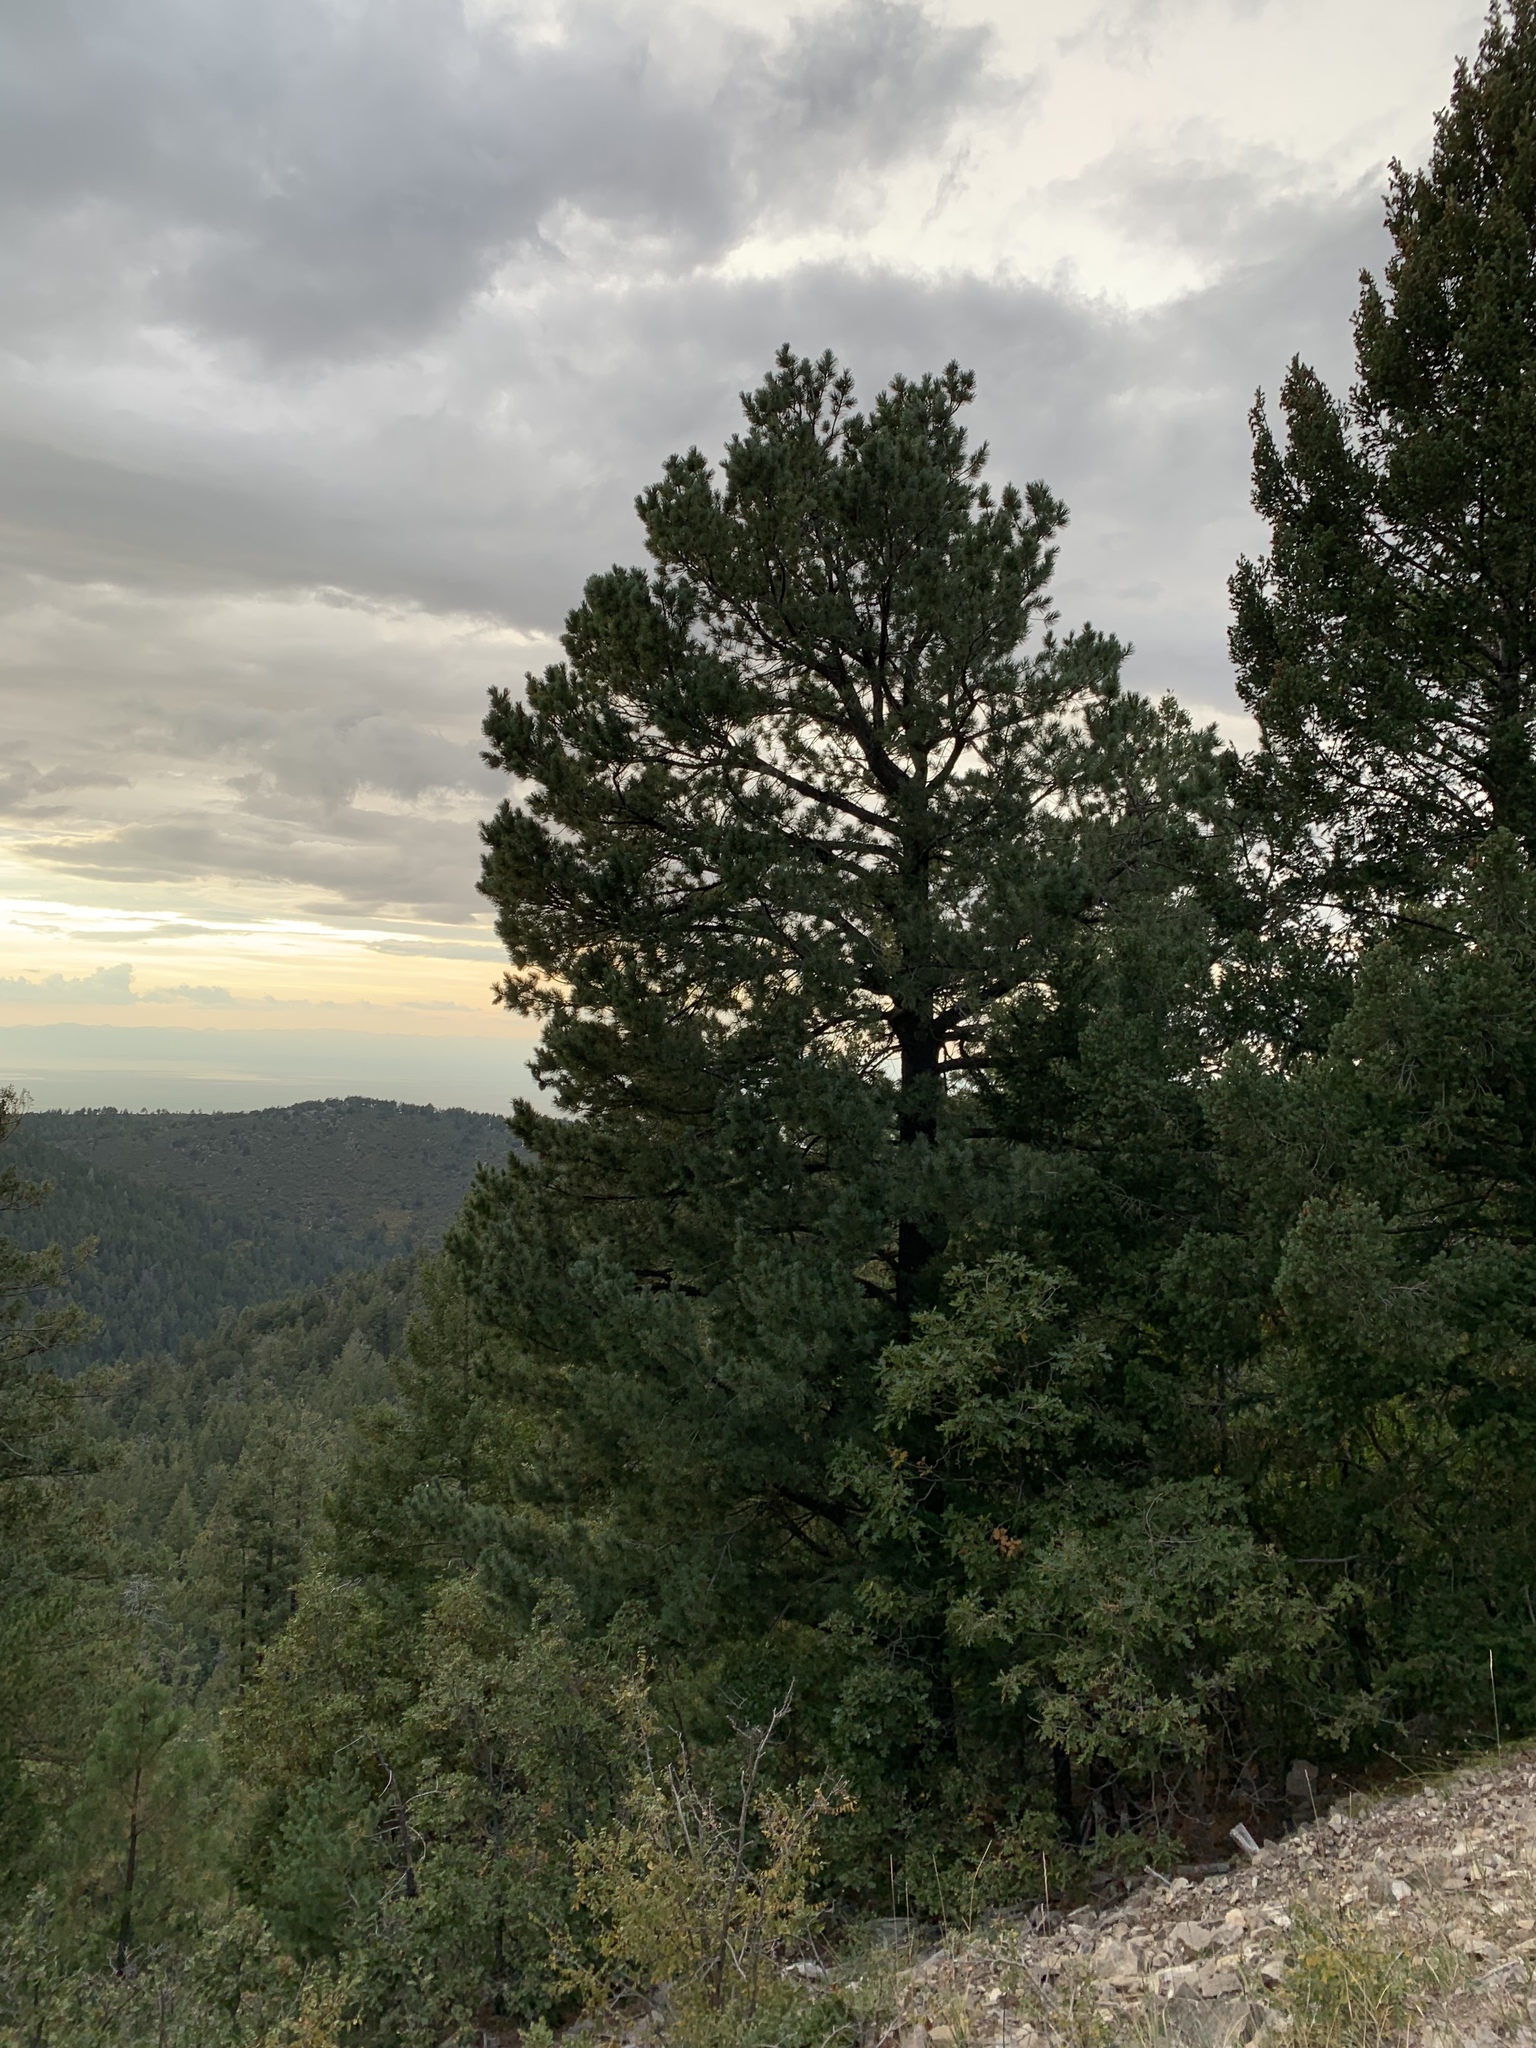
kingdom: Plantae
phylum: Tracheophyta
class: Pinopsida
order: Pinales
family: Pinaceae
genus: Pinus
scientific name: Pinus strobiformis
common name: Southwestern white pine
